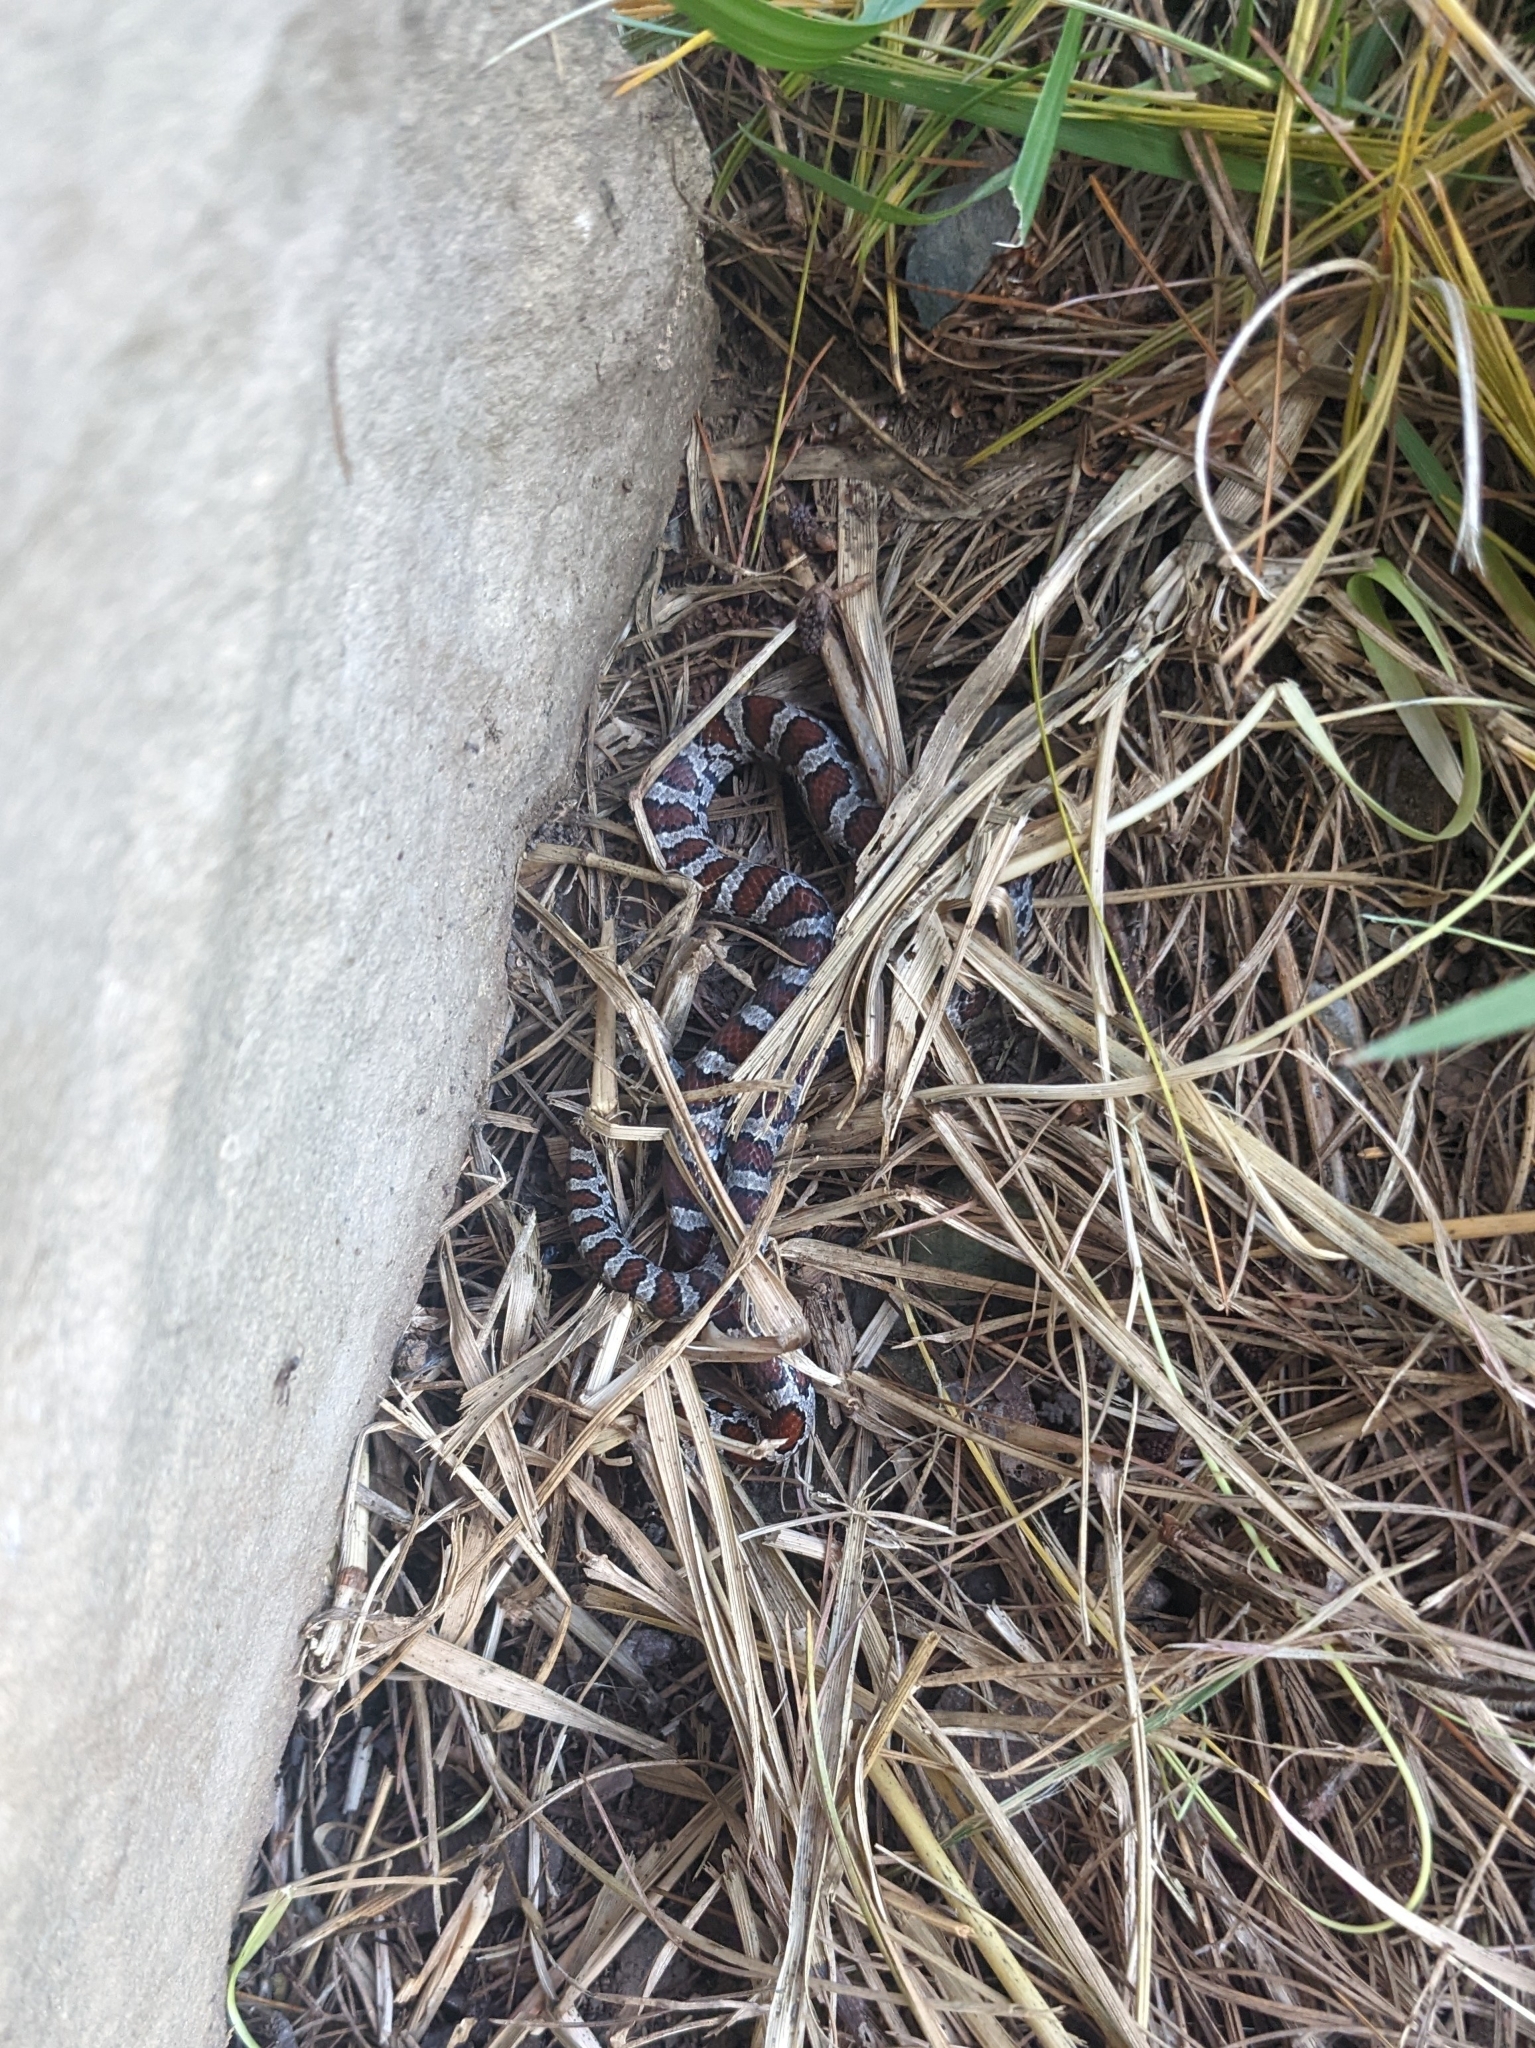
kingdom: Animalia
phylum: Chordata
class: Squamata
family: Colubridae
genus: Lampropeltis
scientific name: Lampropeltis triangulum
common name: Eastern milksnake
